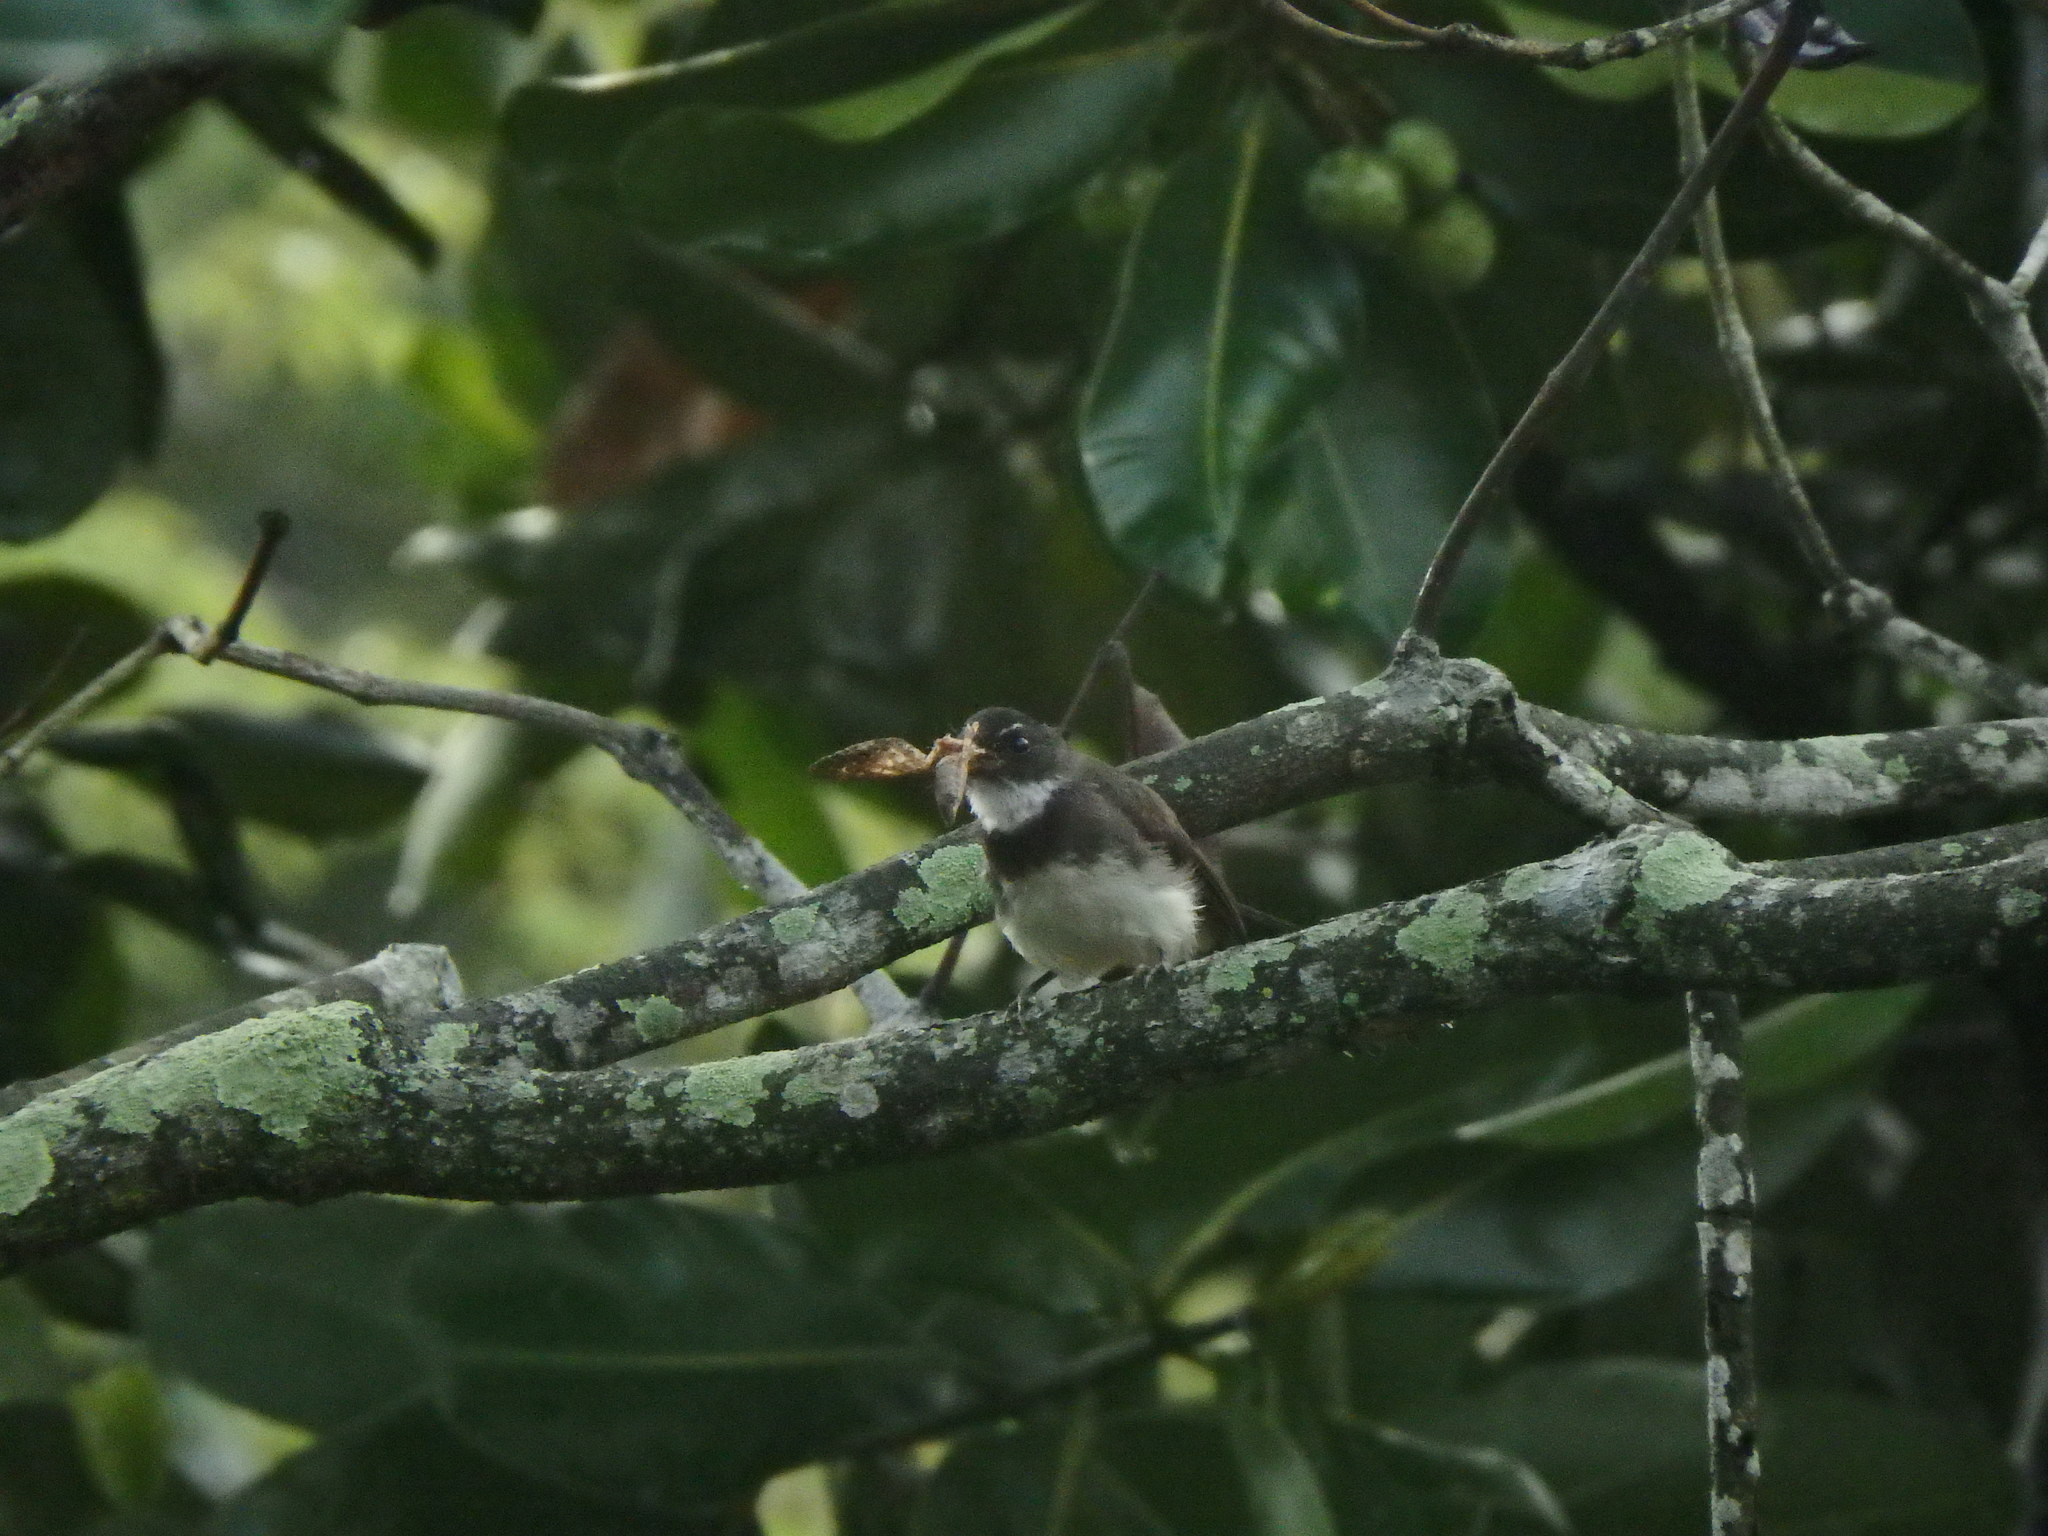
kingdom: Animalia
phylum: Chordata
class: Aves
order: Passeriformes
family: Rhipiduridae
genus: Rhipidura
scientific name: Rhipidura javanica
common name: Pied fantail
